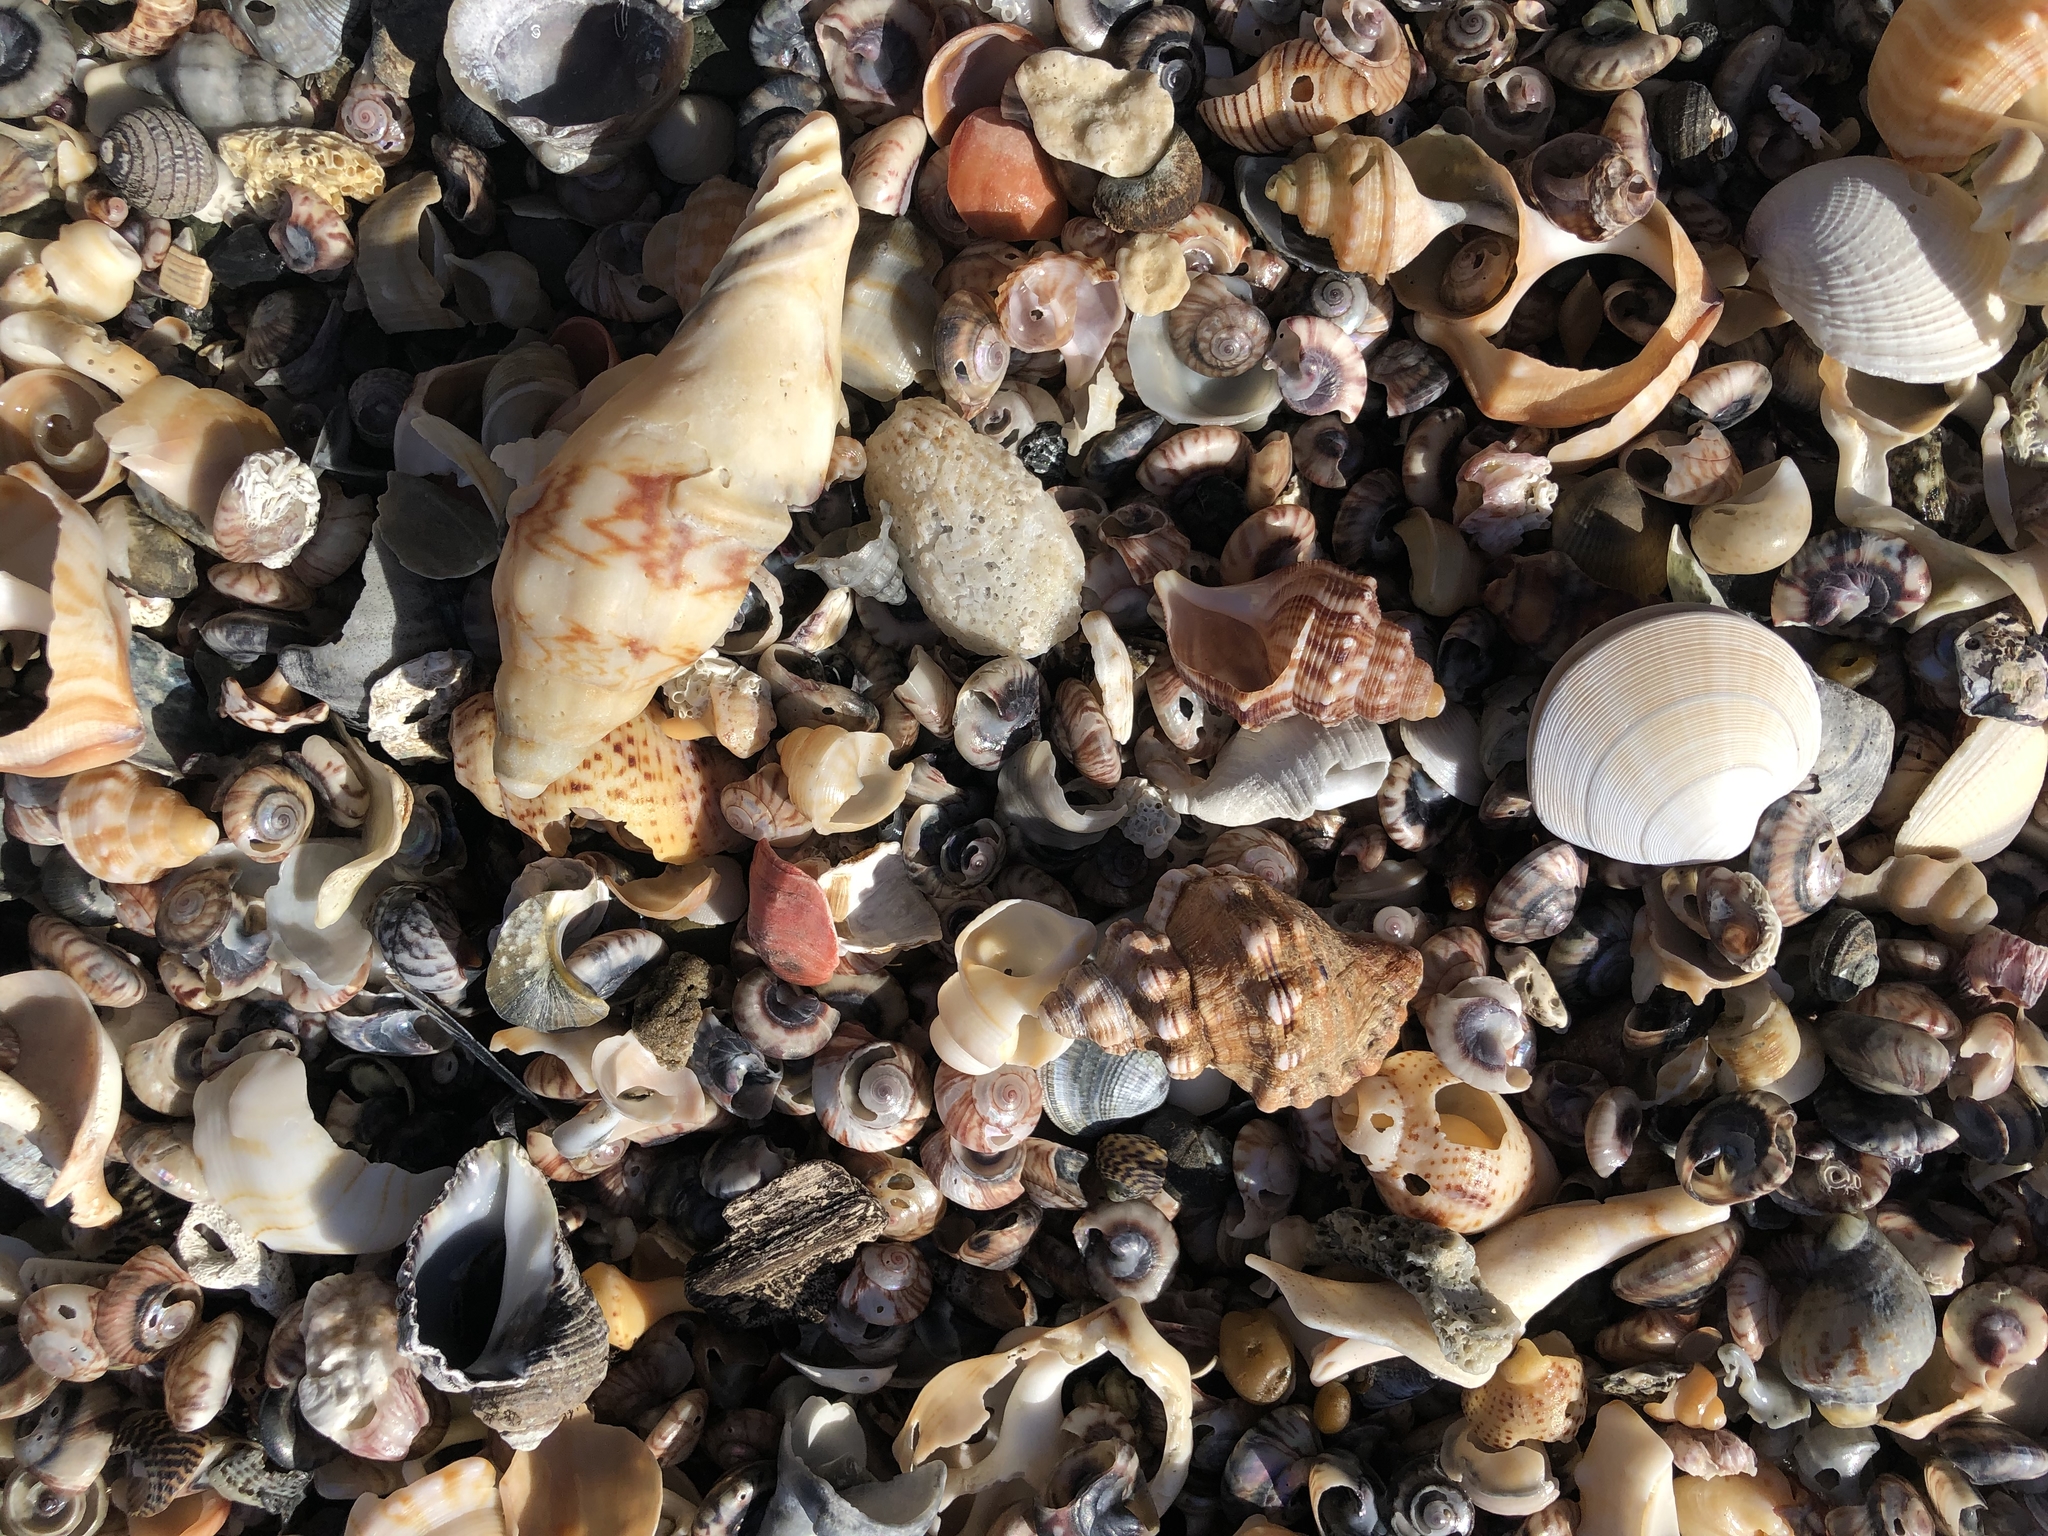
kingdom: Animalia
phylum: Mollusca
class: Gastropoda
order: Littorinimorpha
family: Cymatiidae
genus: Cabestana
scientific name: Cabestana spengleri
